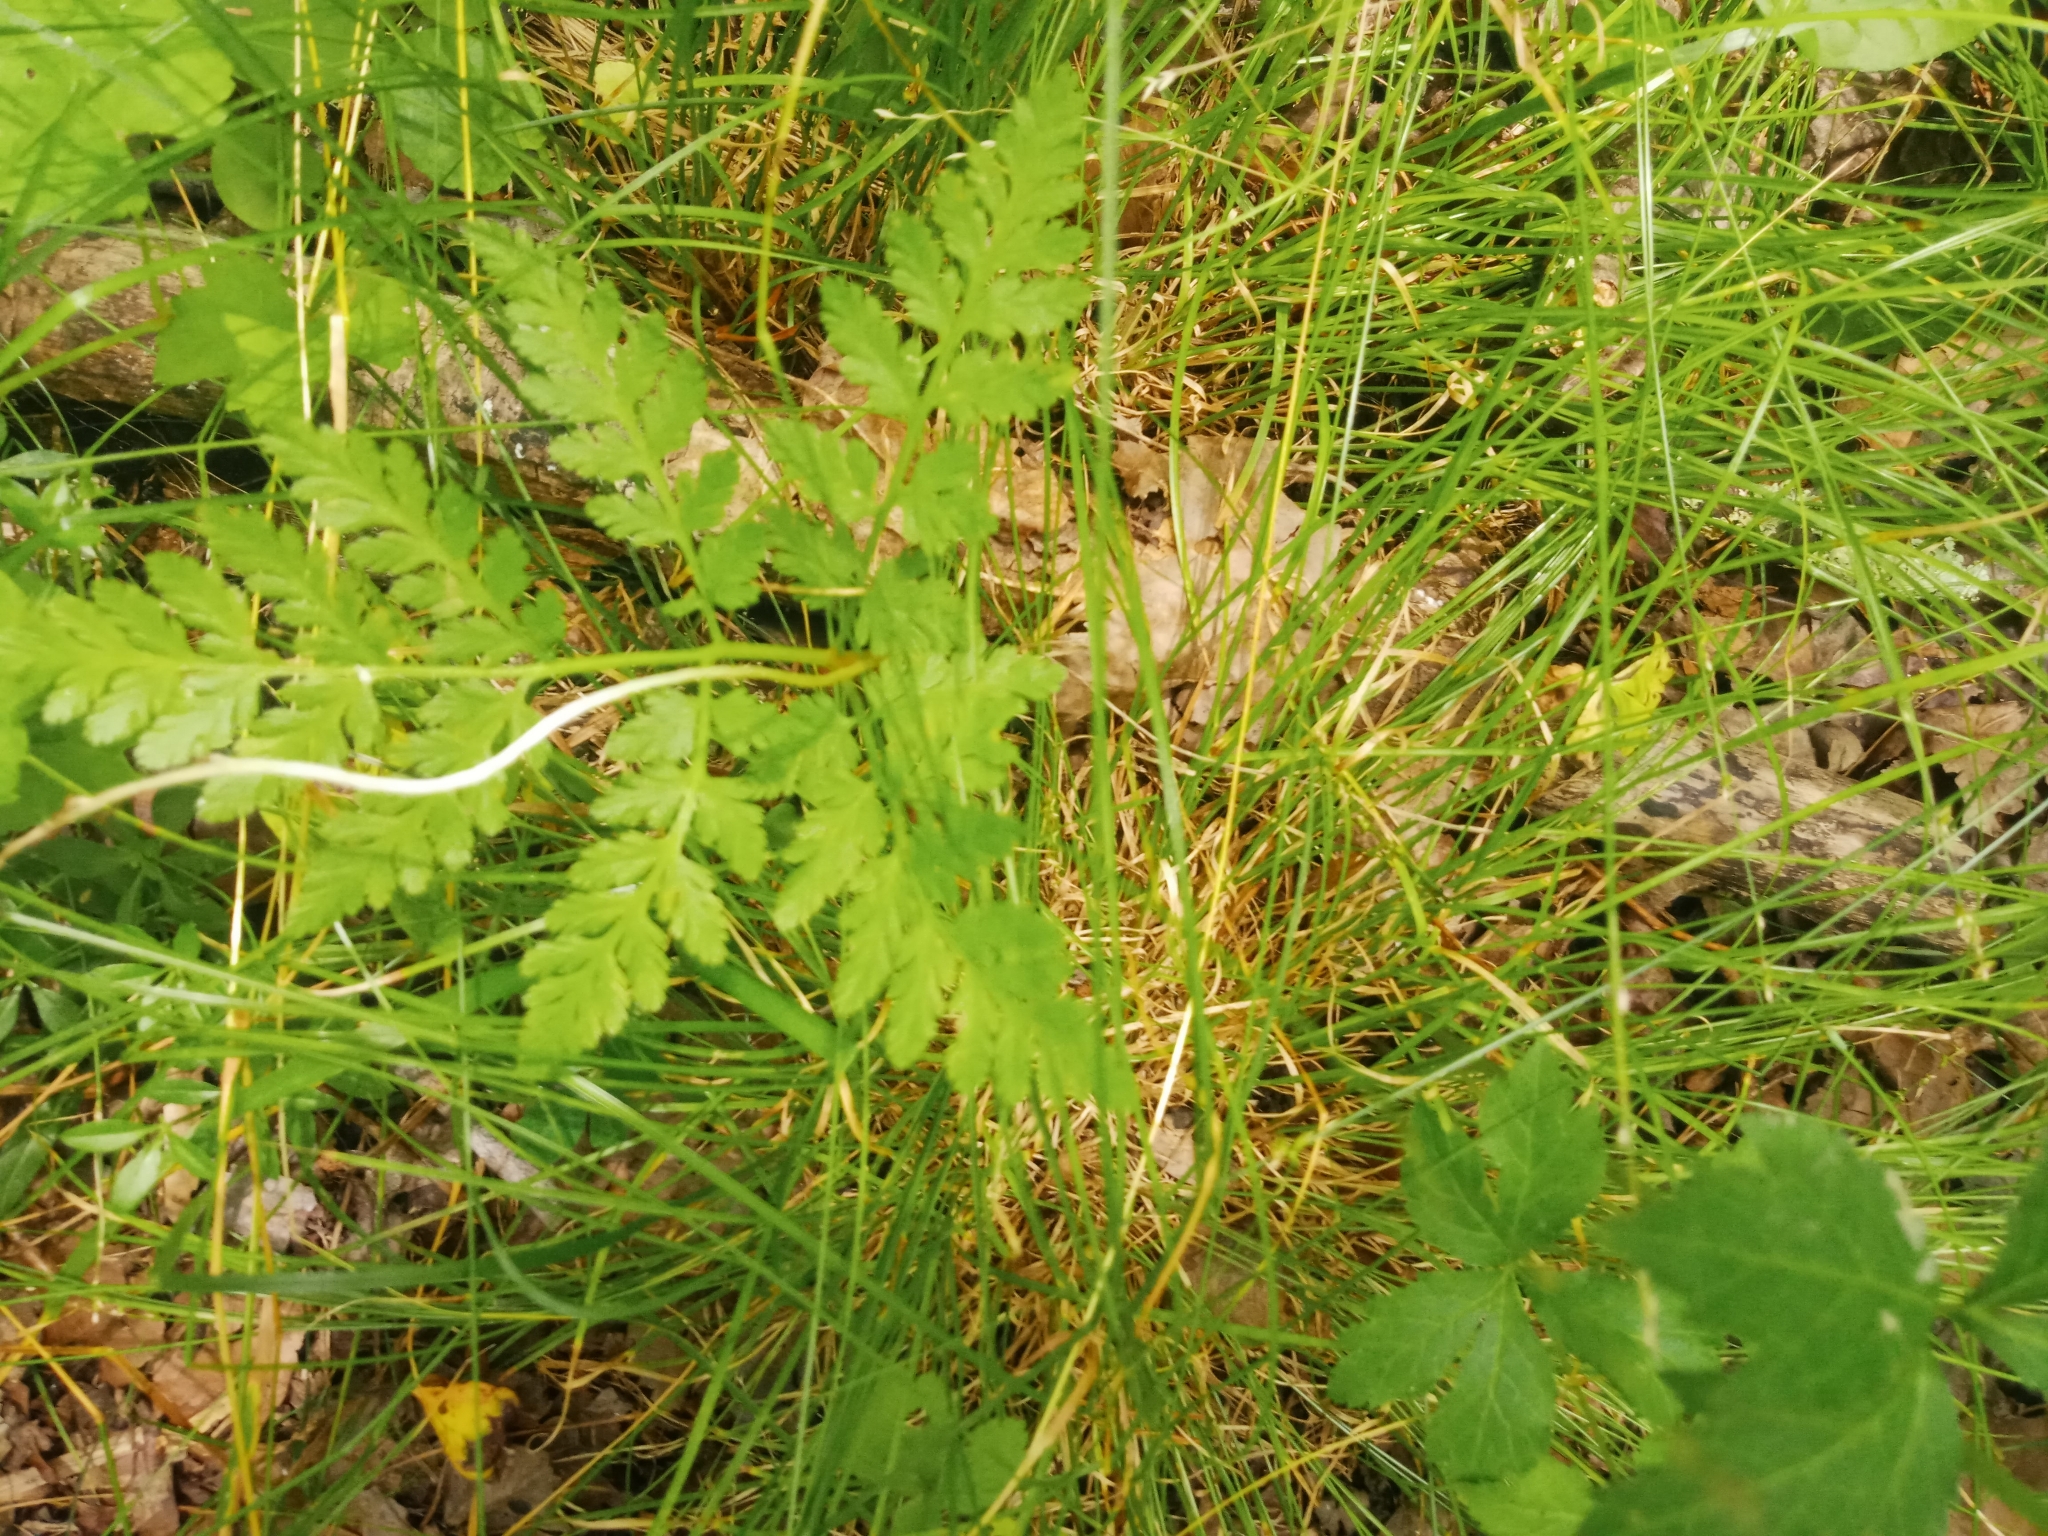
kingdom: Plantae
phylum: Tracheophyta
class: Polypodiopsida
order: Ophioglossales
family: Ophioglossaceae
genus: Botrypus
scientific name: Botrypus virginianus
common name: Common grapefern
